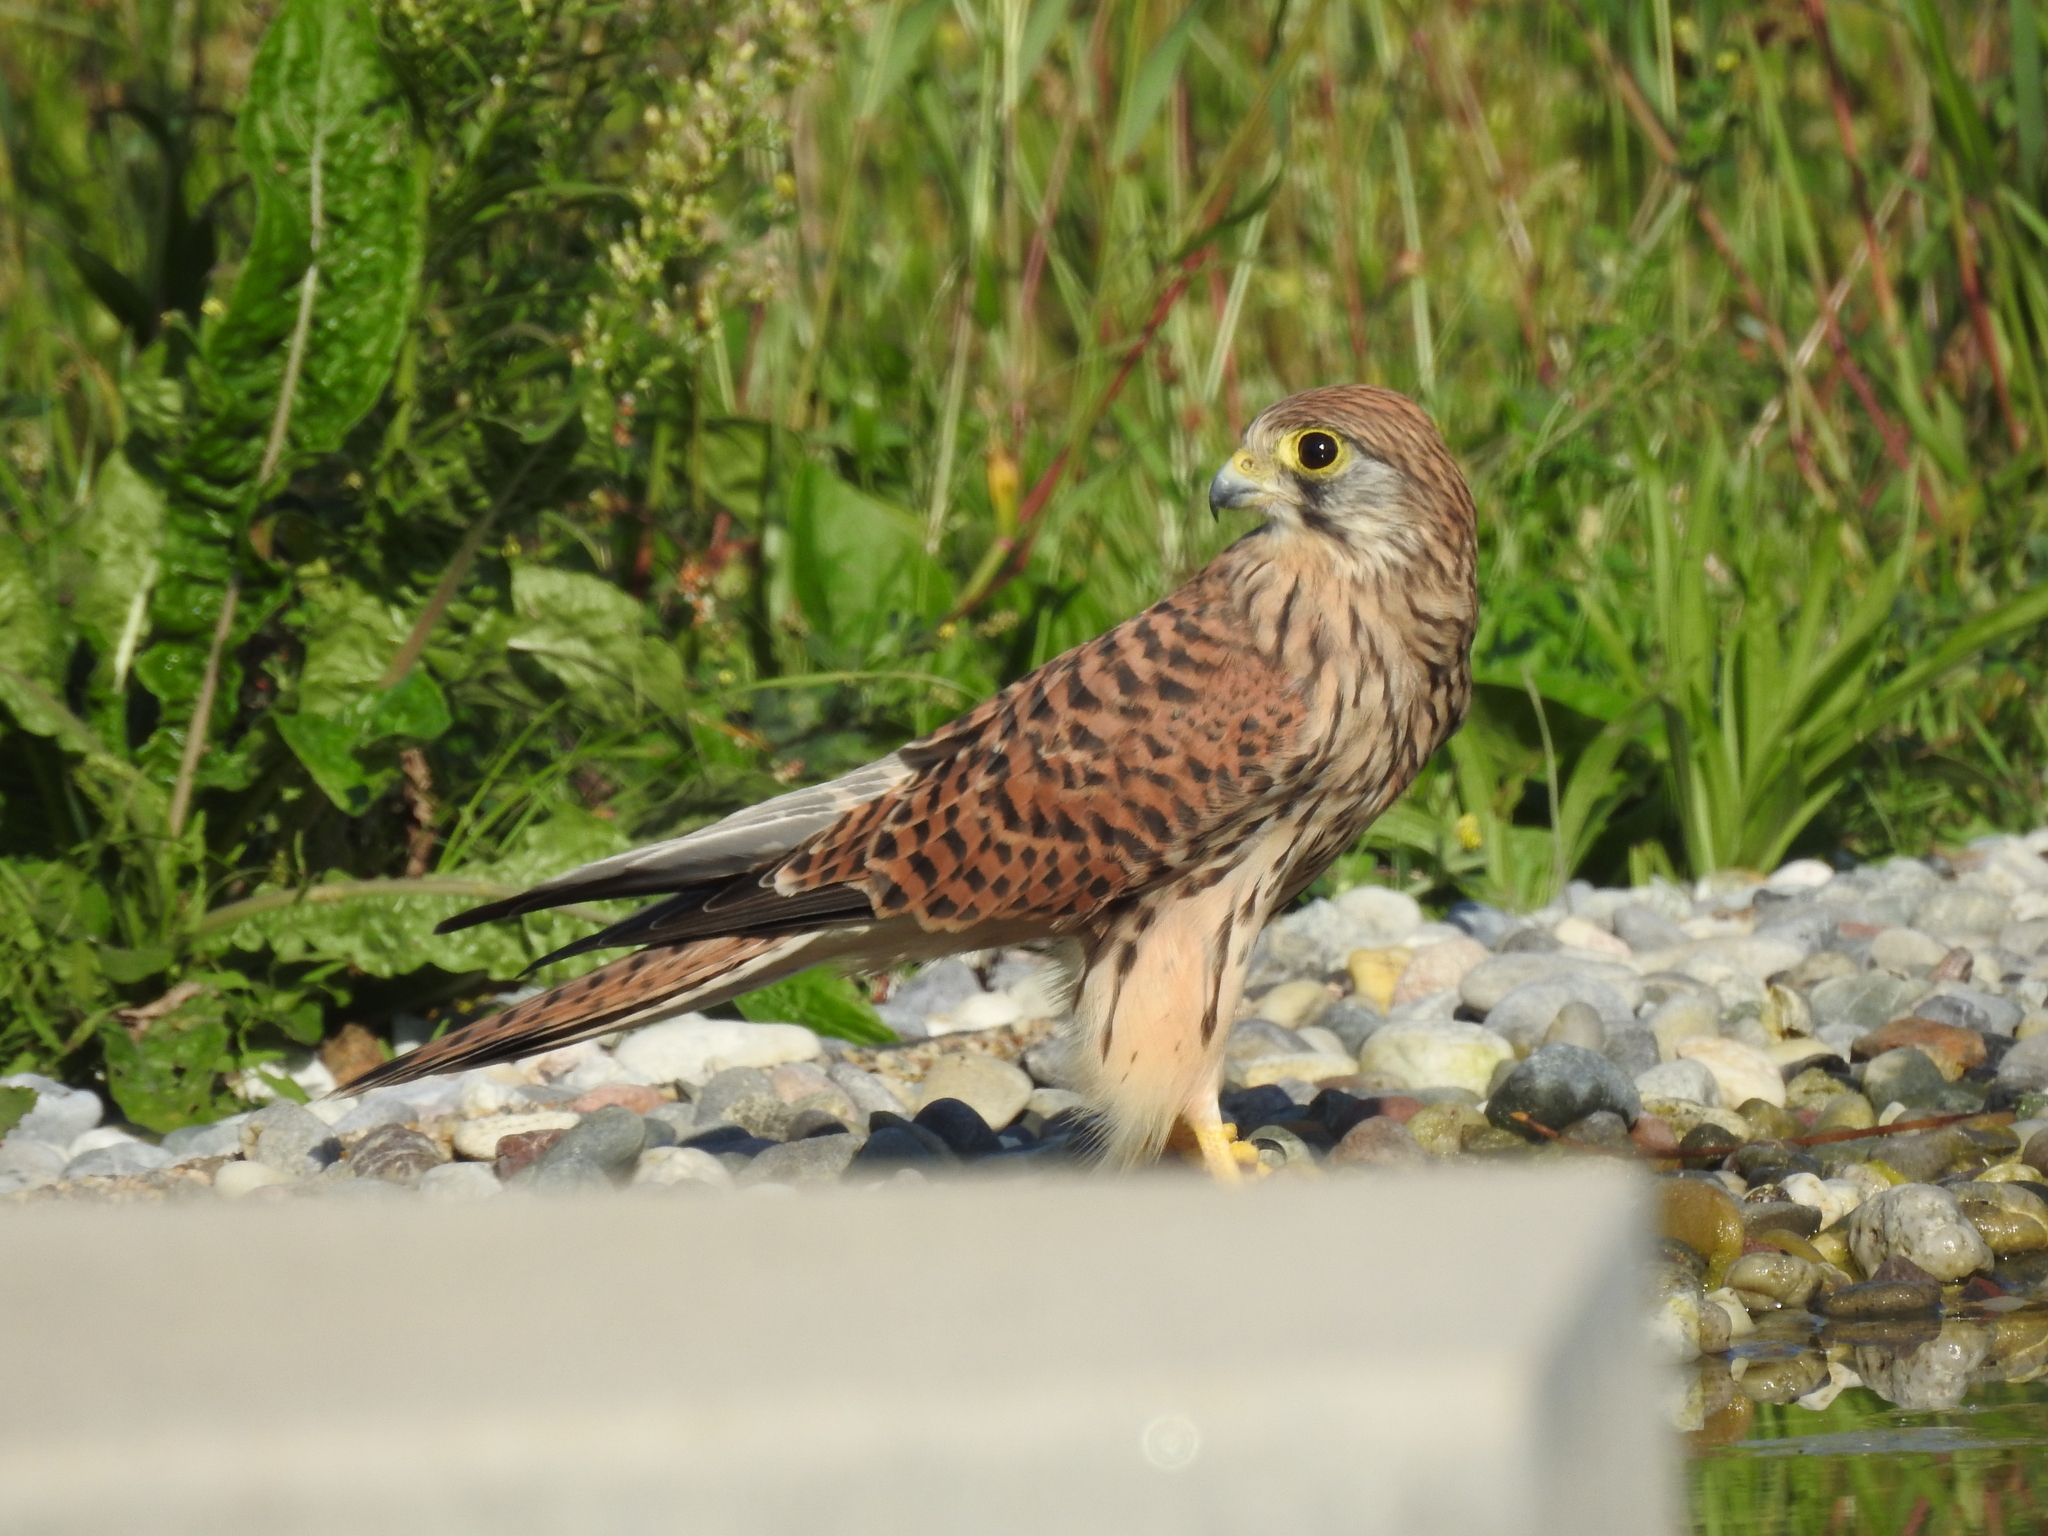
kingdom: Animalia
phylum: Chordata
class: Aves
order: Falconiformes
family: Falconidae
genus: Falco
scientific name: Falco tinnunculus
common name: Common kestrel
